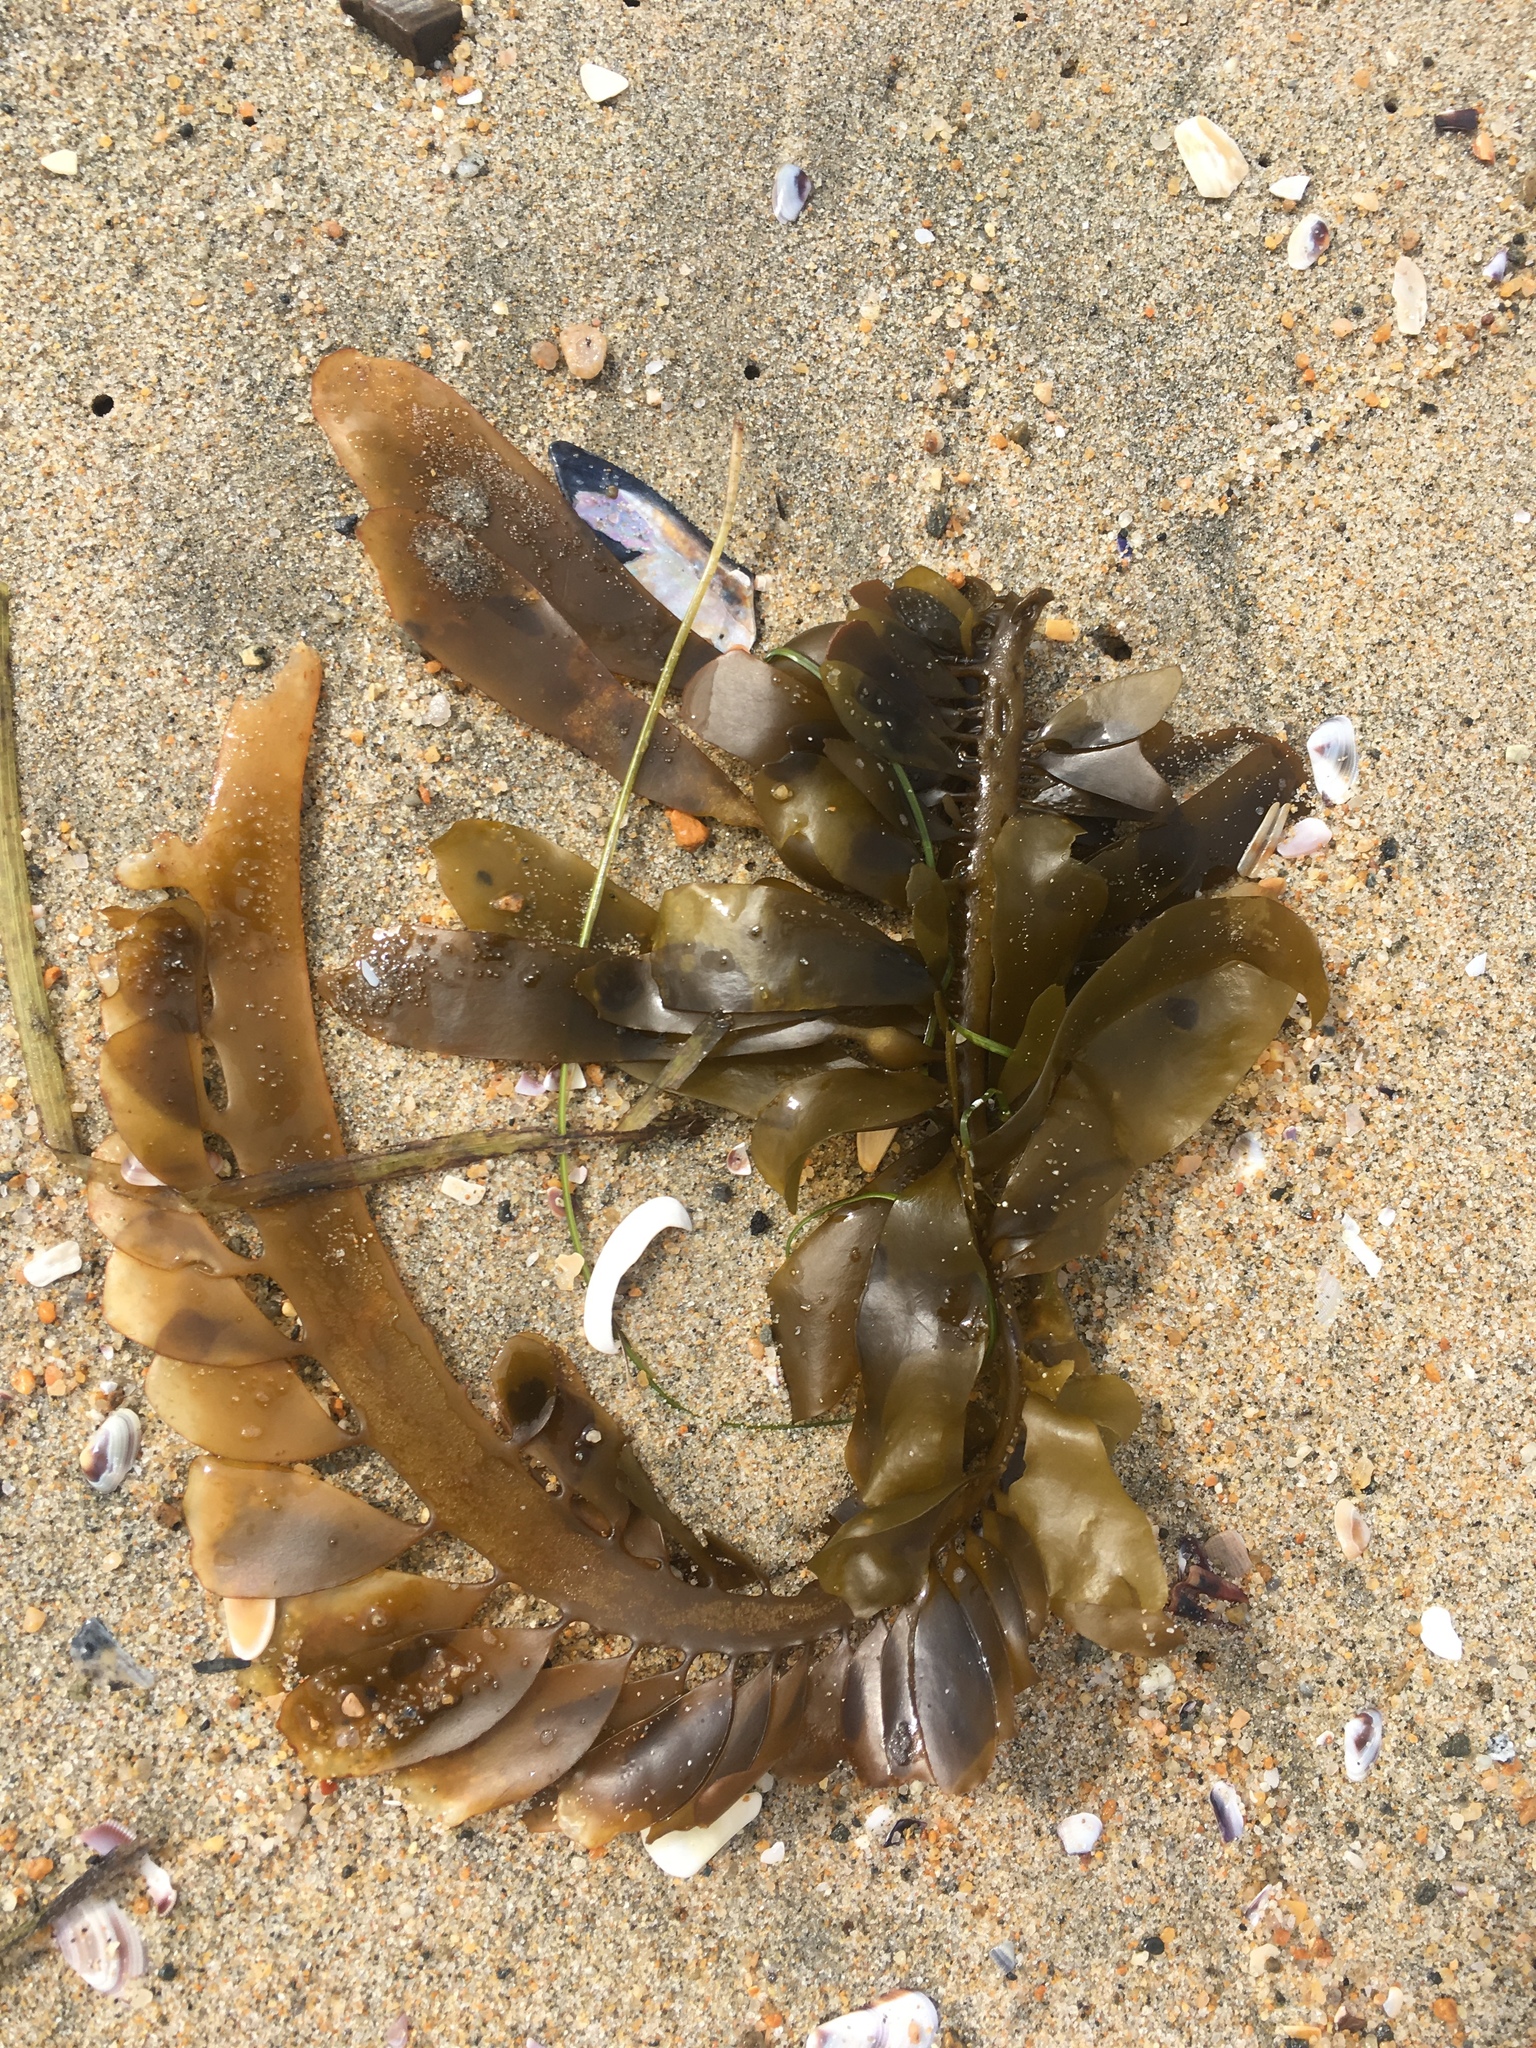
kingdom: Chromista
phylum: Ochrophyta
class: Phaeophyceae
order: Laminariales
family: Lessoniaceae
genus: Egregia
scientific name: Egregia menziesii
